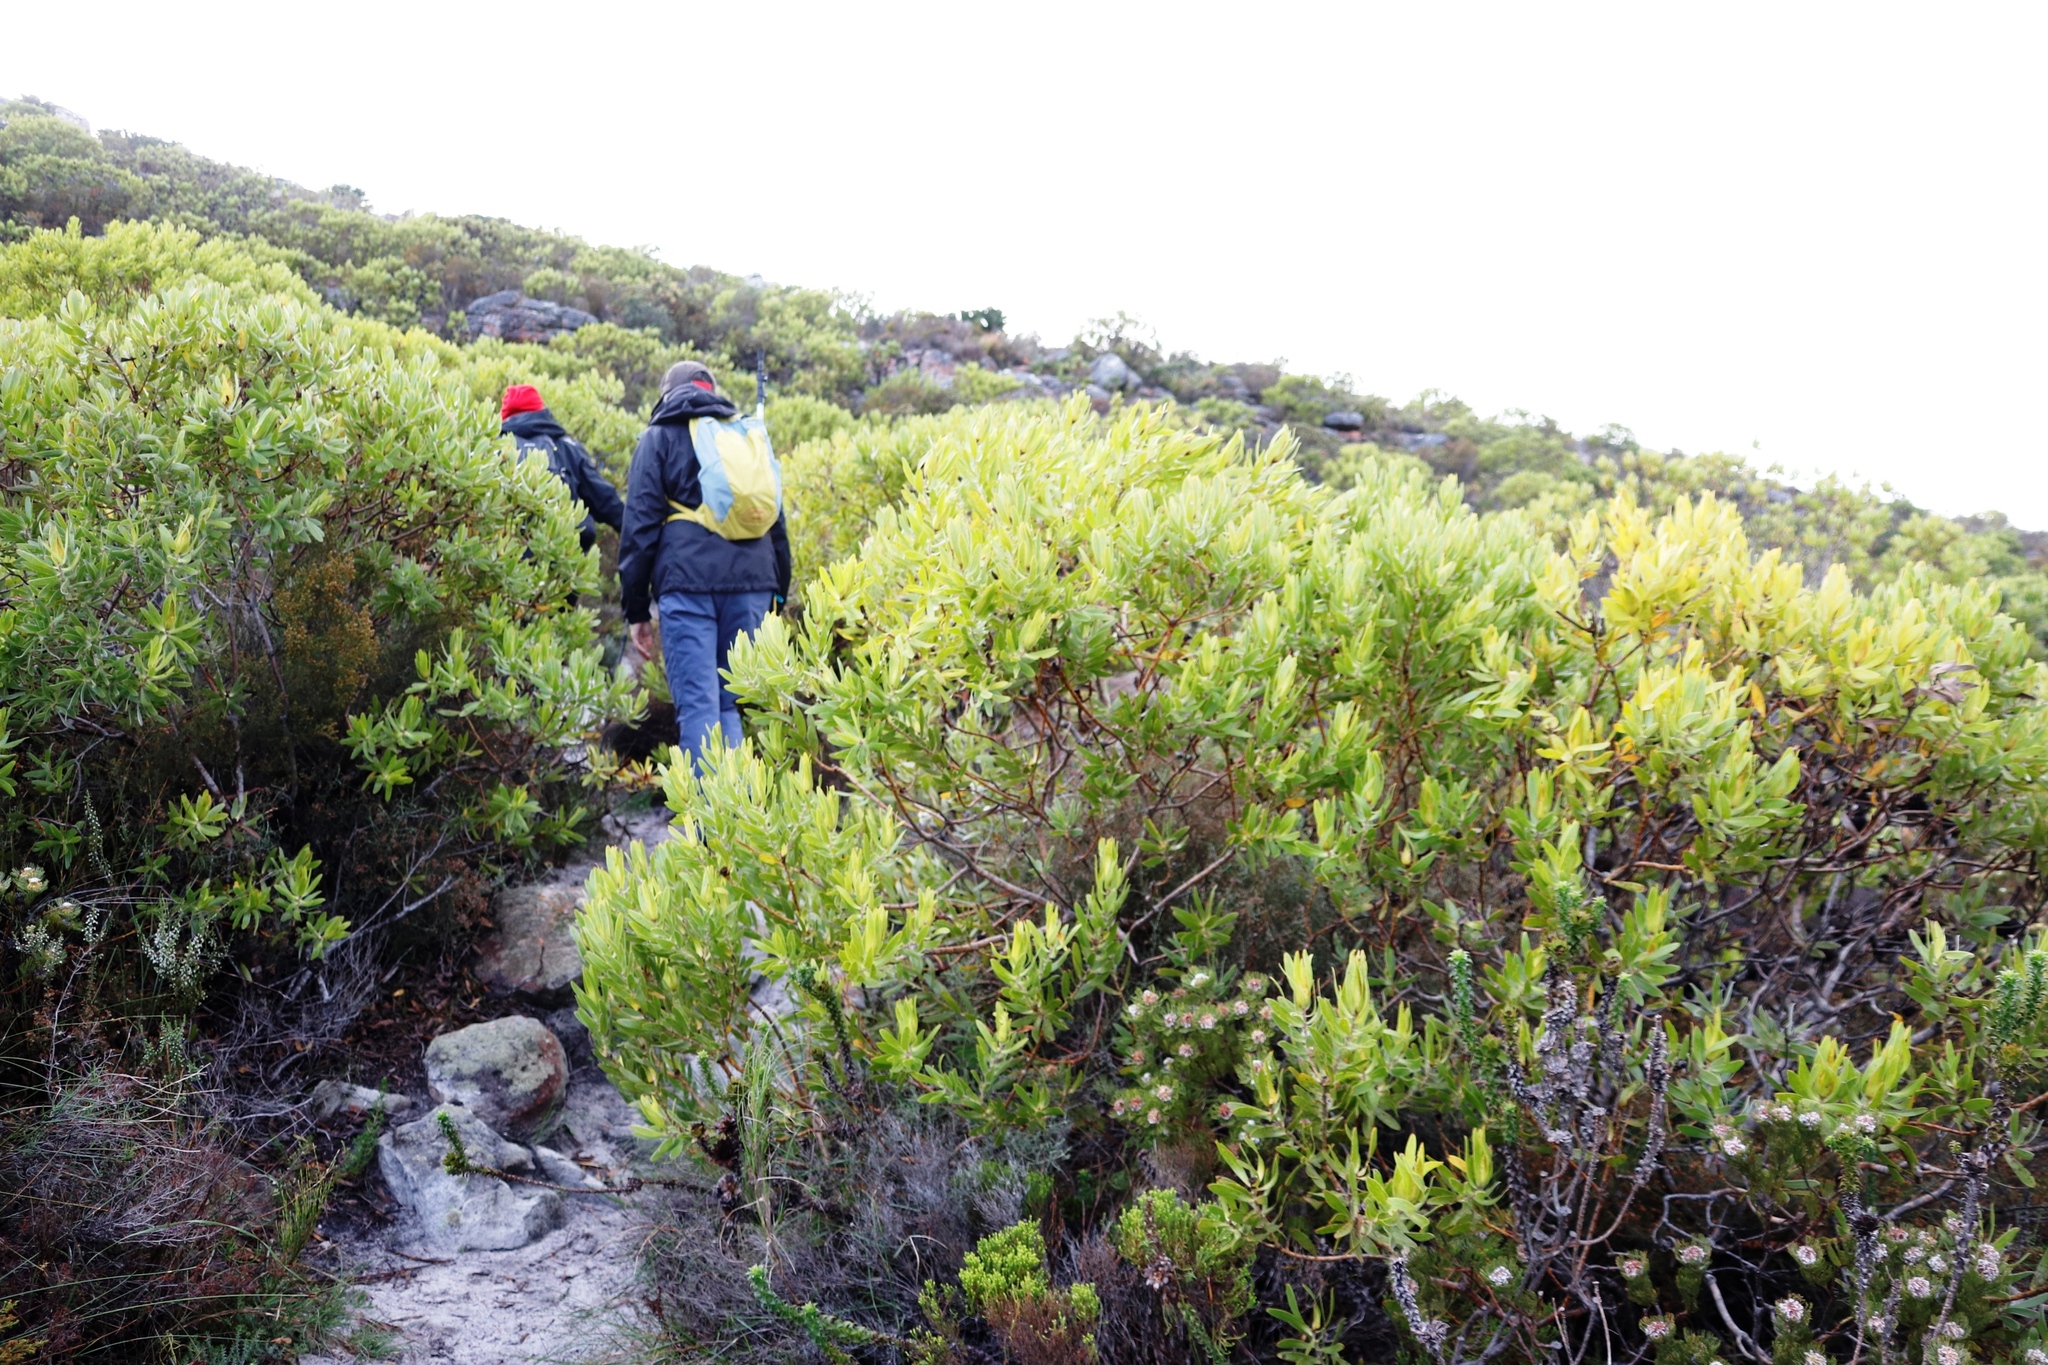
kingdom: Plantae
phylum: Tracheophyta
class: Magnoliopsida
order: Proteales
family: Proteaceae
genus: Leucadendron
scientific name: Leucadendron laureolum
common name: Golden sunshinebush
